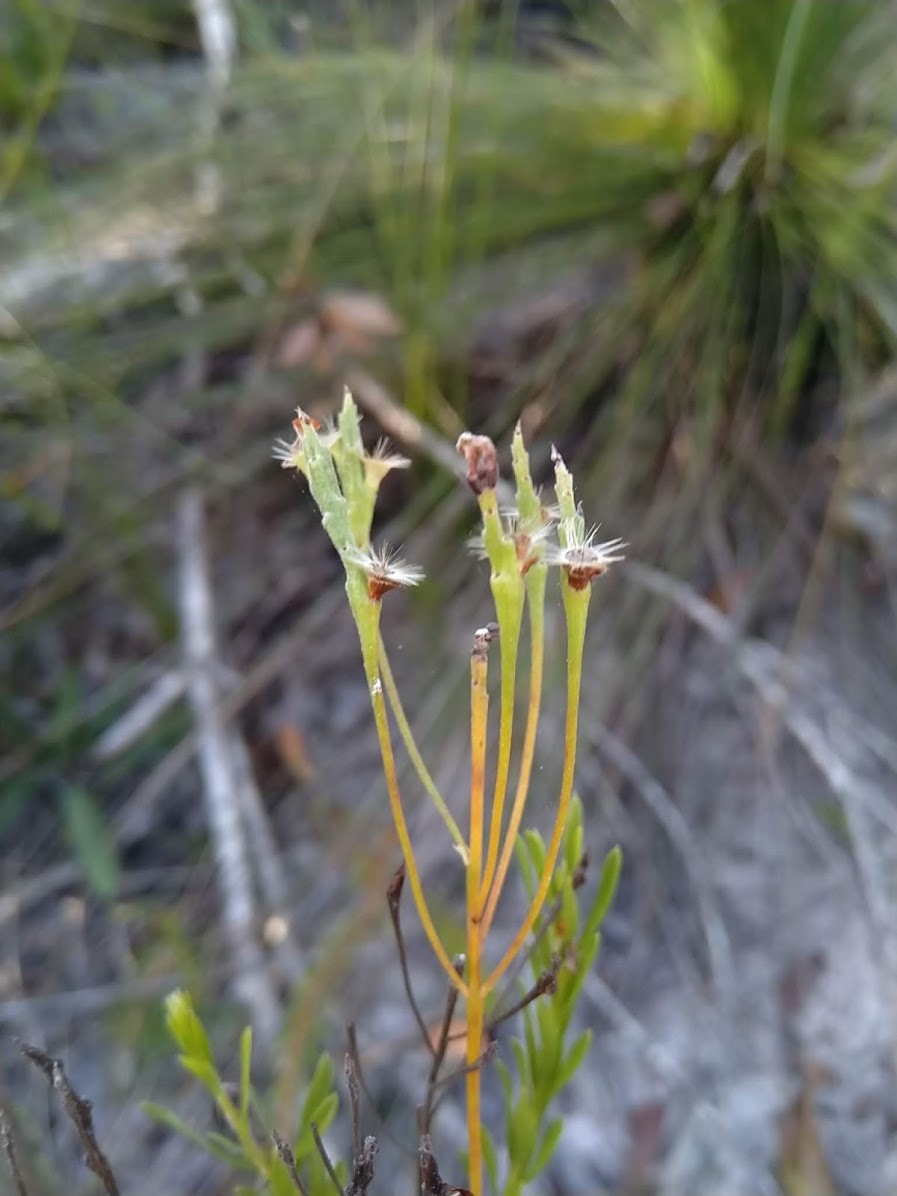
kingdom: Plantae
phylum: Tracheophyta
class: Magnoliopsida
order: Proteales
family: Proteaceae
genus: Conospermum
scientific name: Conospermum taxifolium
